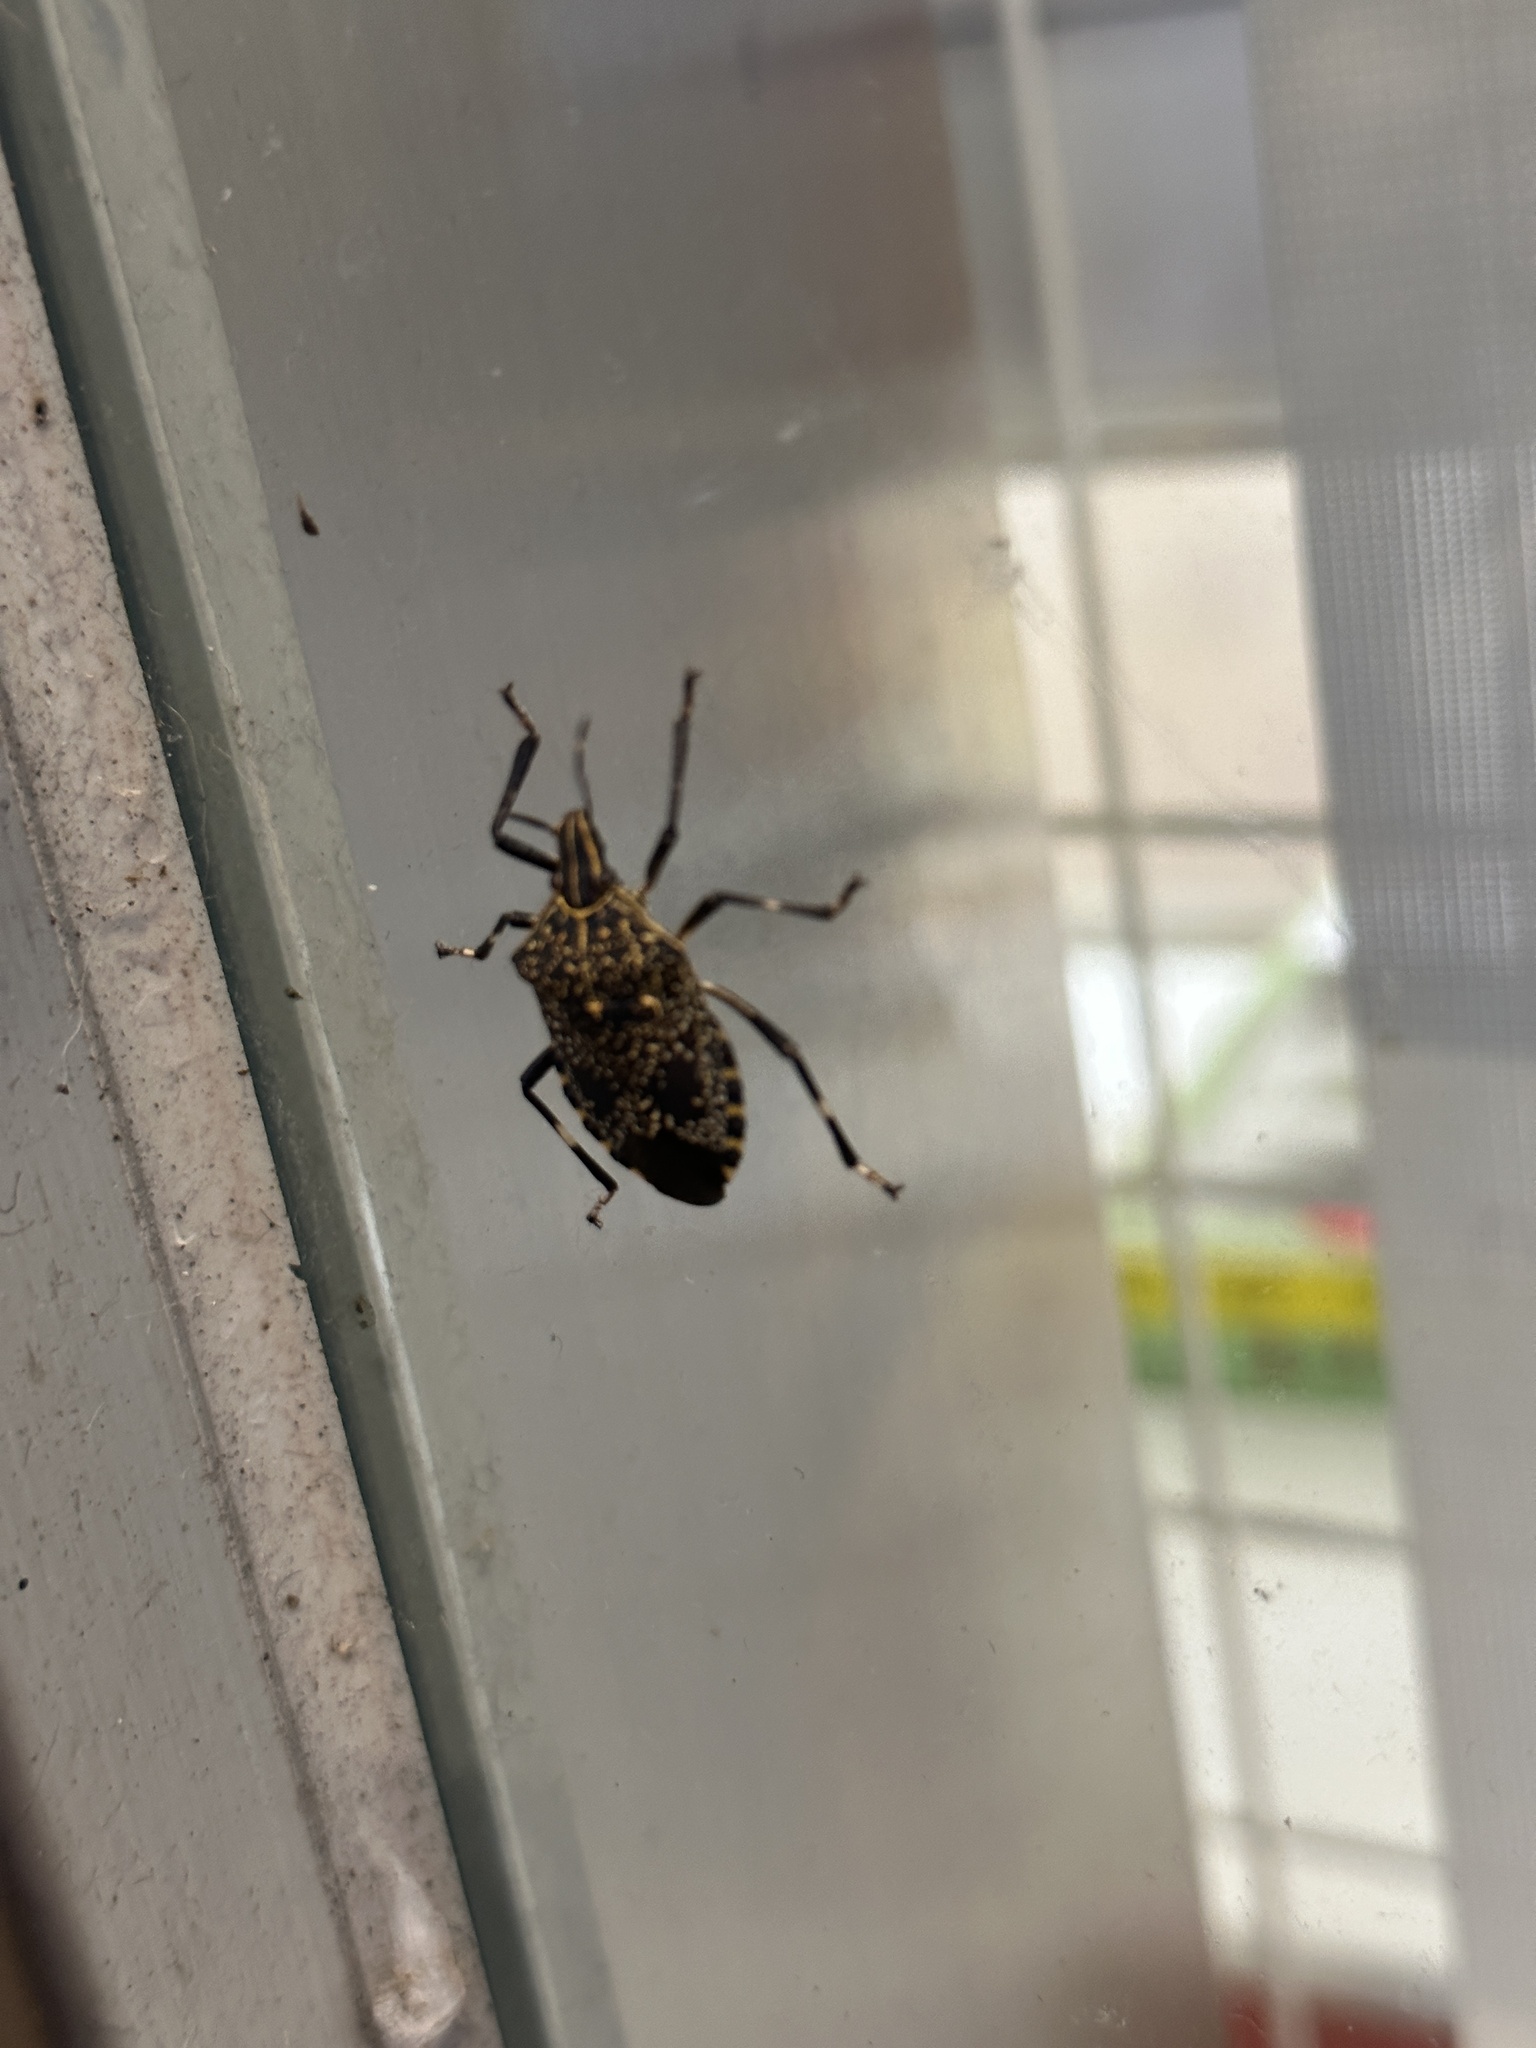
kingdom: Animalia
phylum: Arthropoda
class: Insecta
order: Hemiptera
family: Pentatomidae
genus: Erthesina
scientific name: Erthesina fullo
